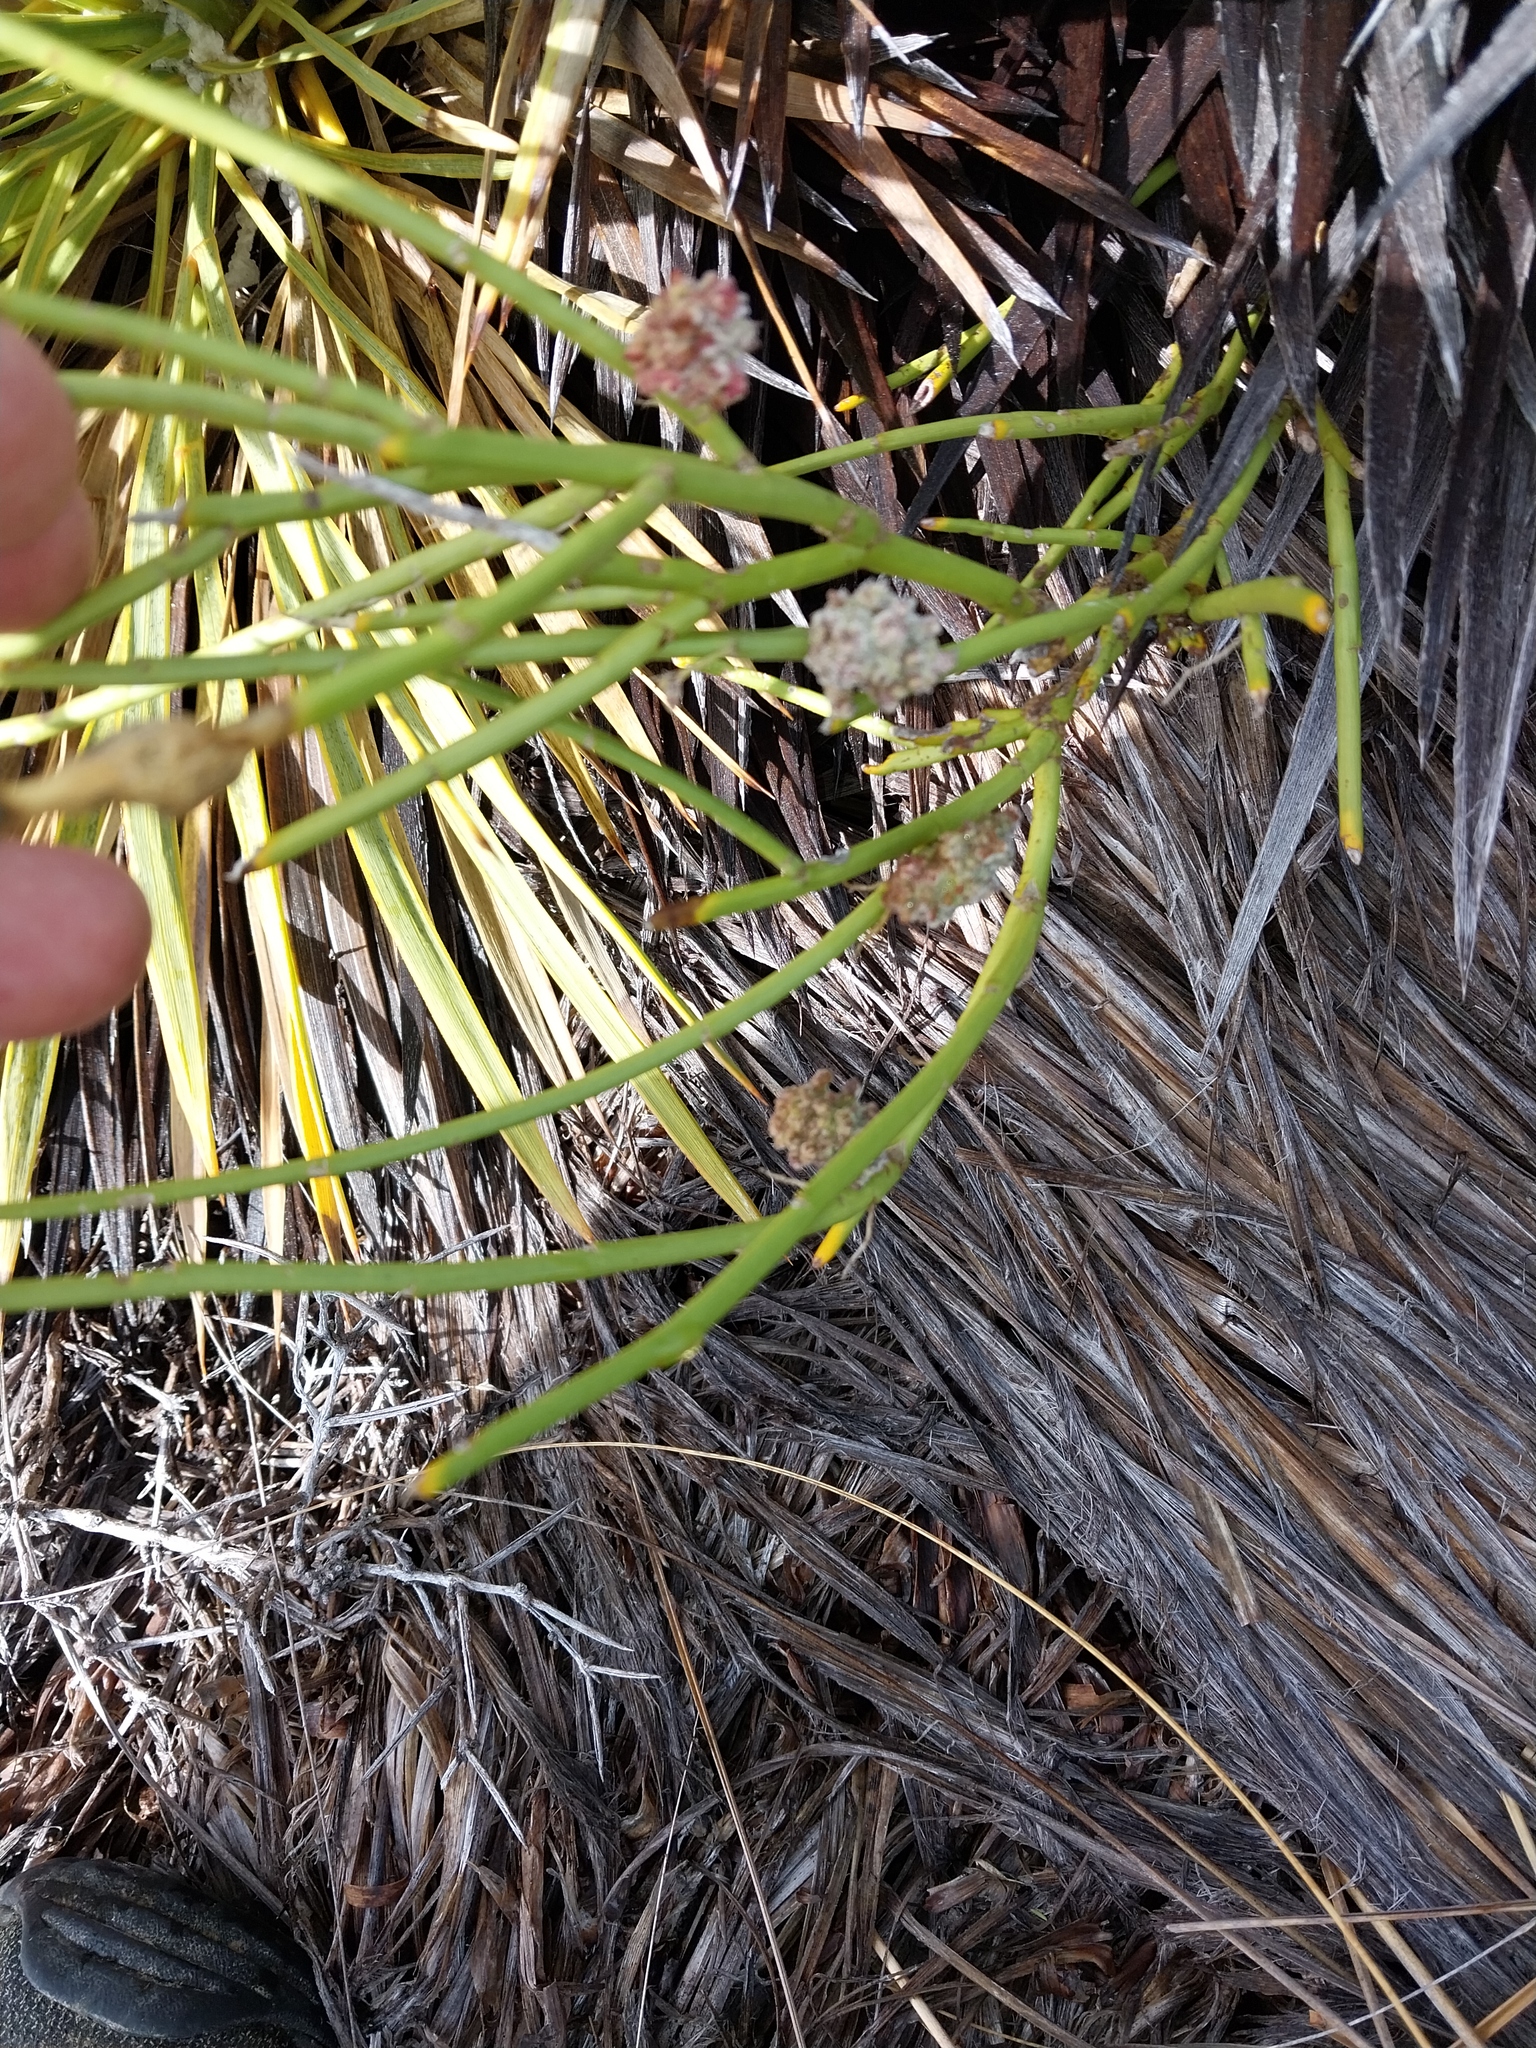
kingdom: Plantae
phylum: Tracheophyta
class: Magnoliopsida
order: Fabales
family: Fabaceae
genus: Carmichaelia
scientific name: Carmichaelia petriei
